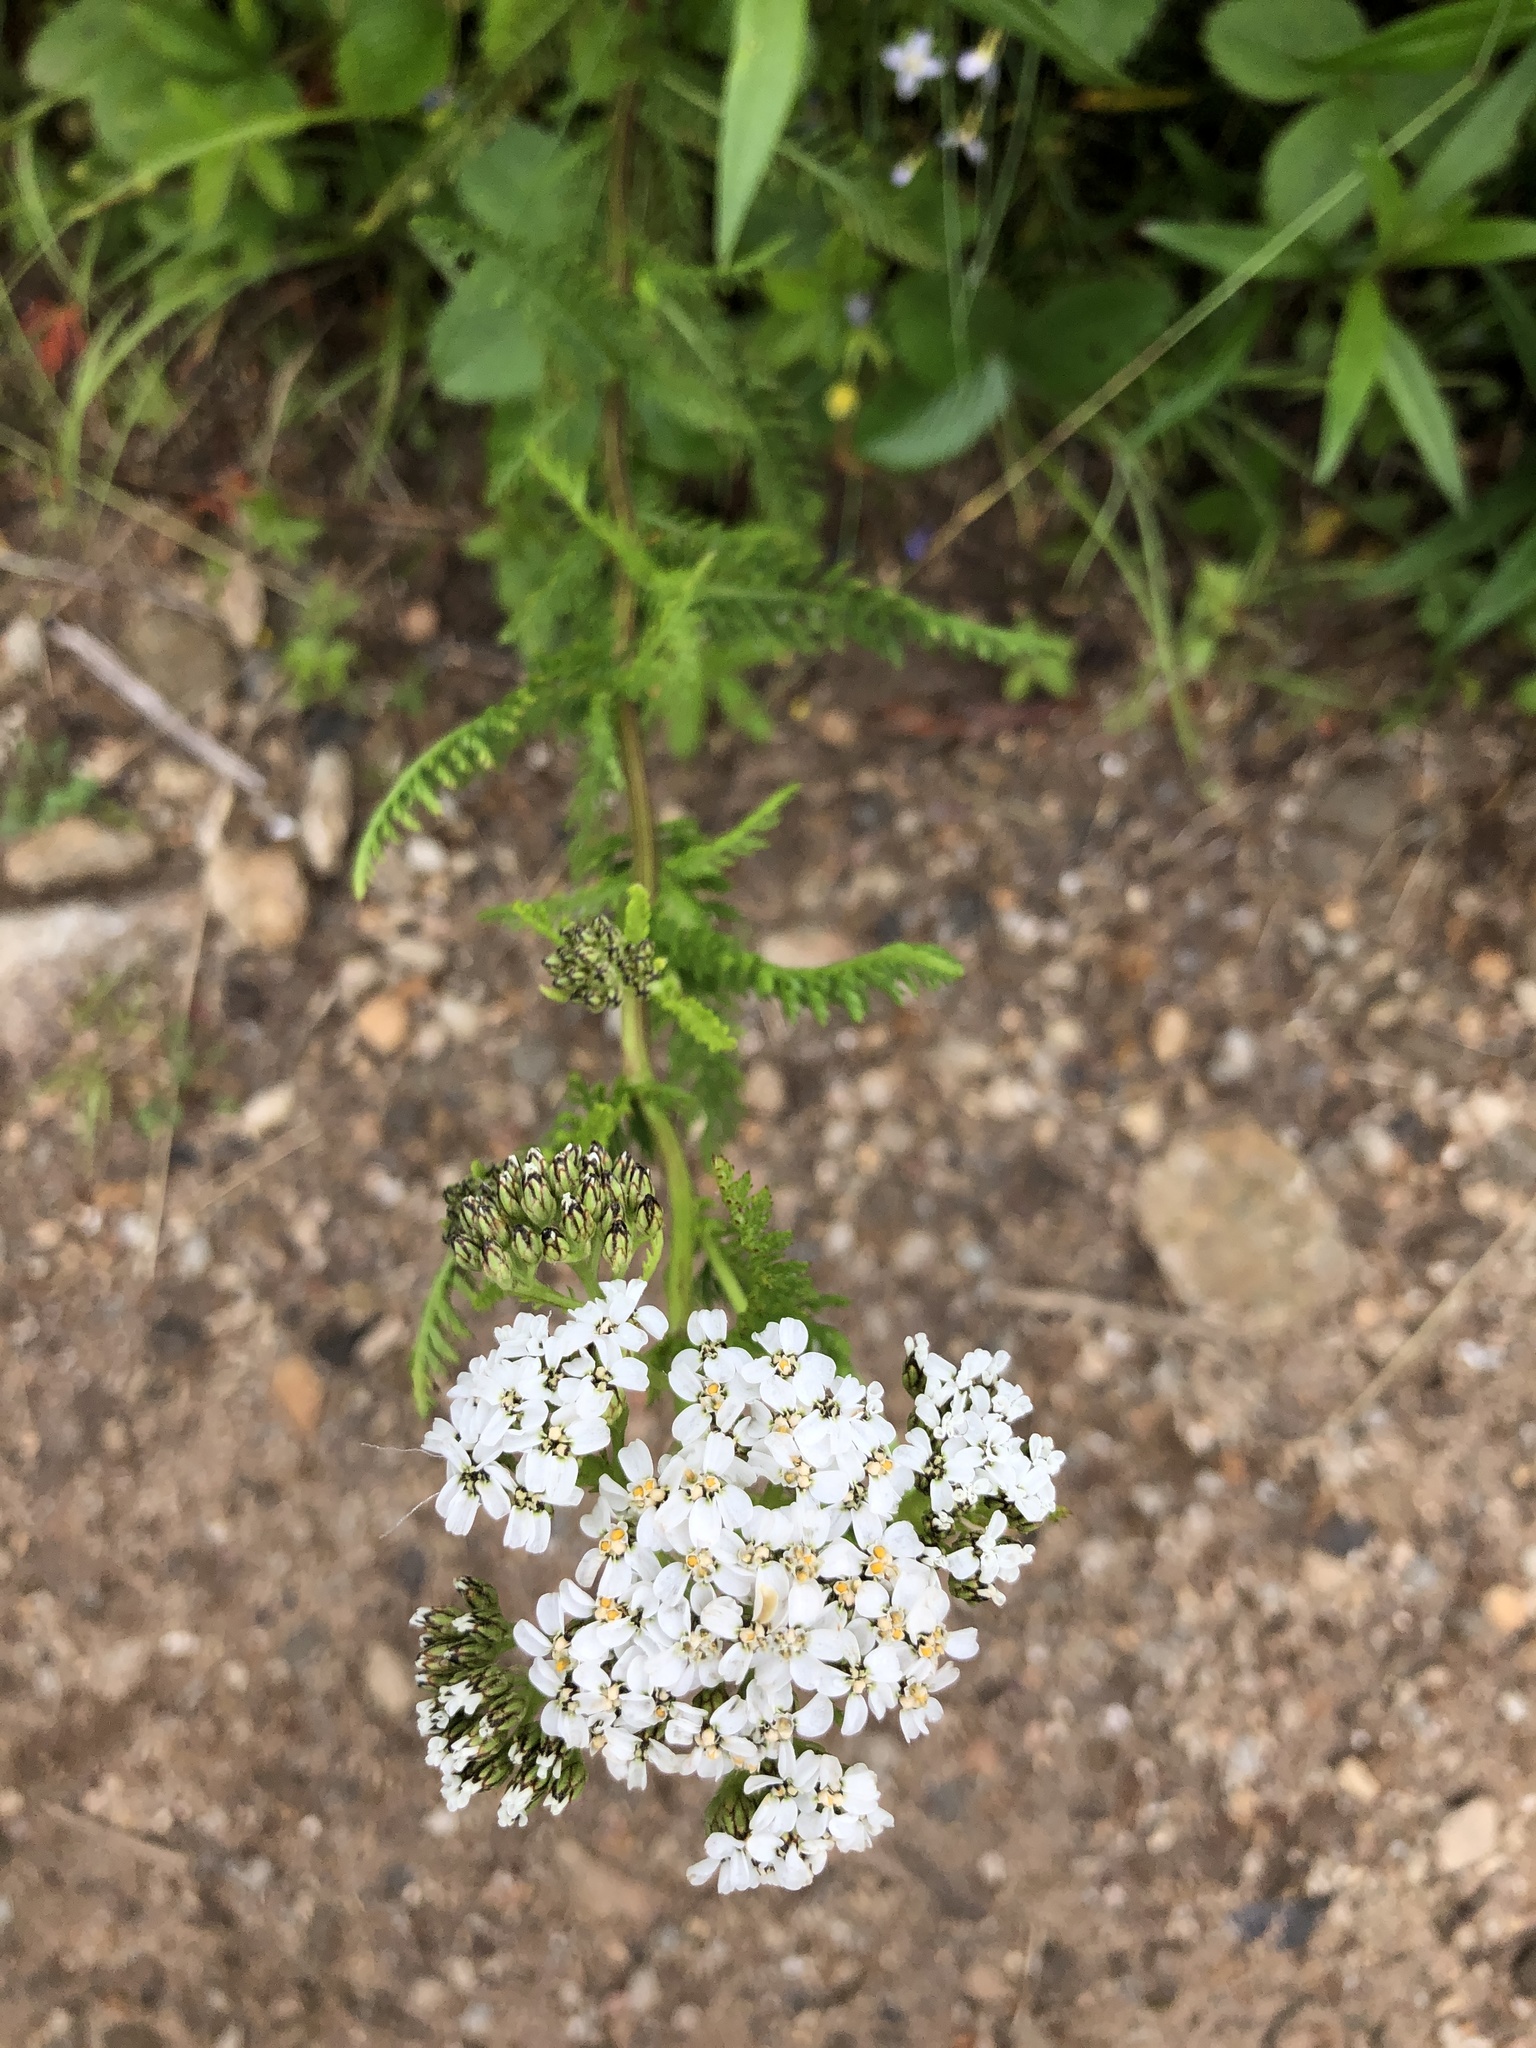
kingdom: Plantae
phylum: Tracheophyta
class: Magnoliopsida
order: Asterales
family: Asteraceae
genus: Achillea
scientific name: Achillea millefolium
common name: Yarrow
